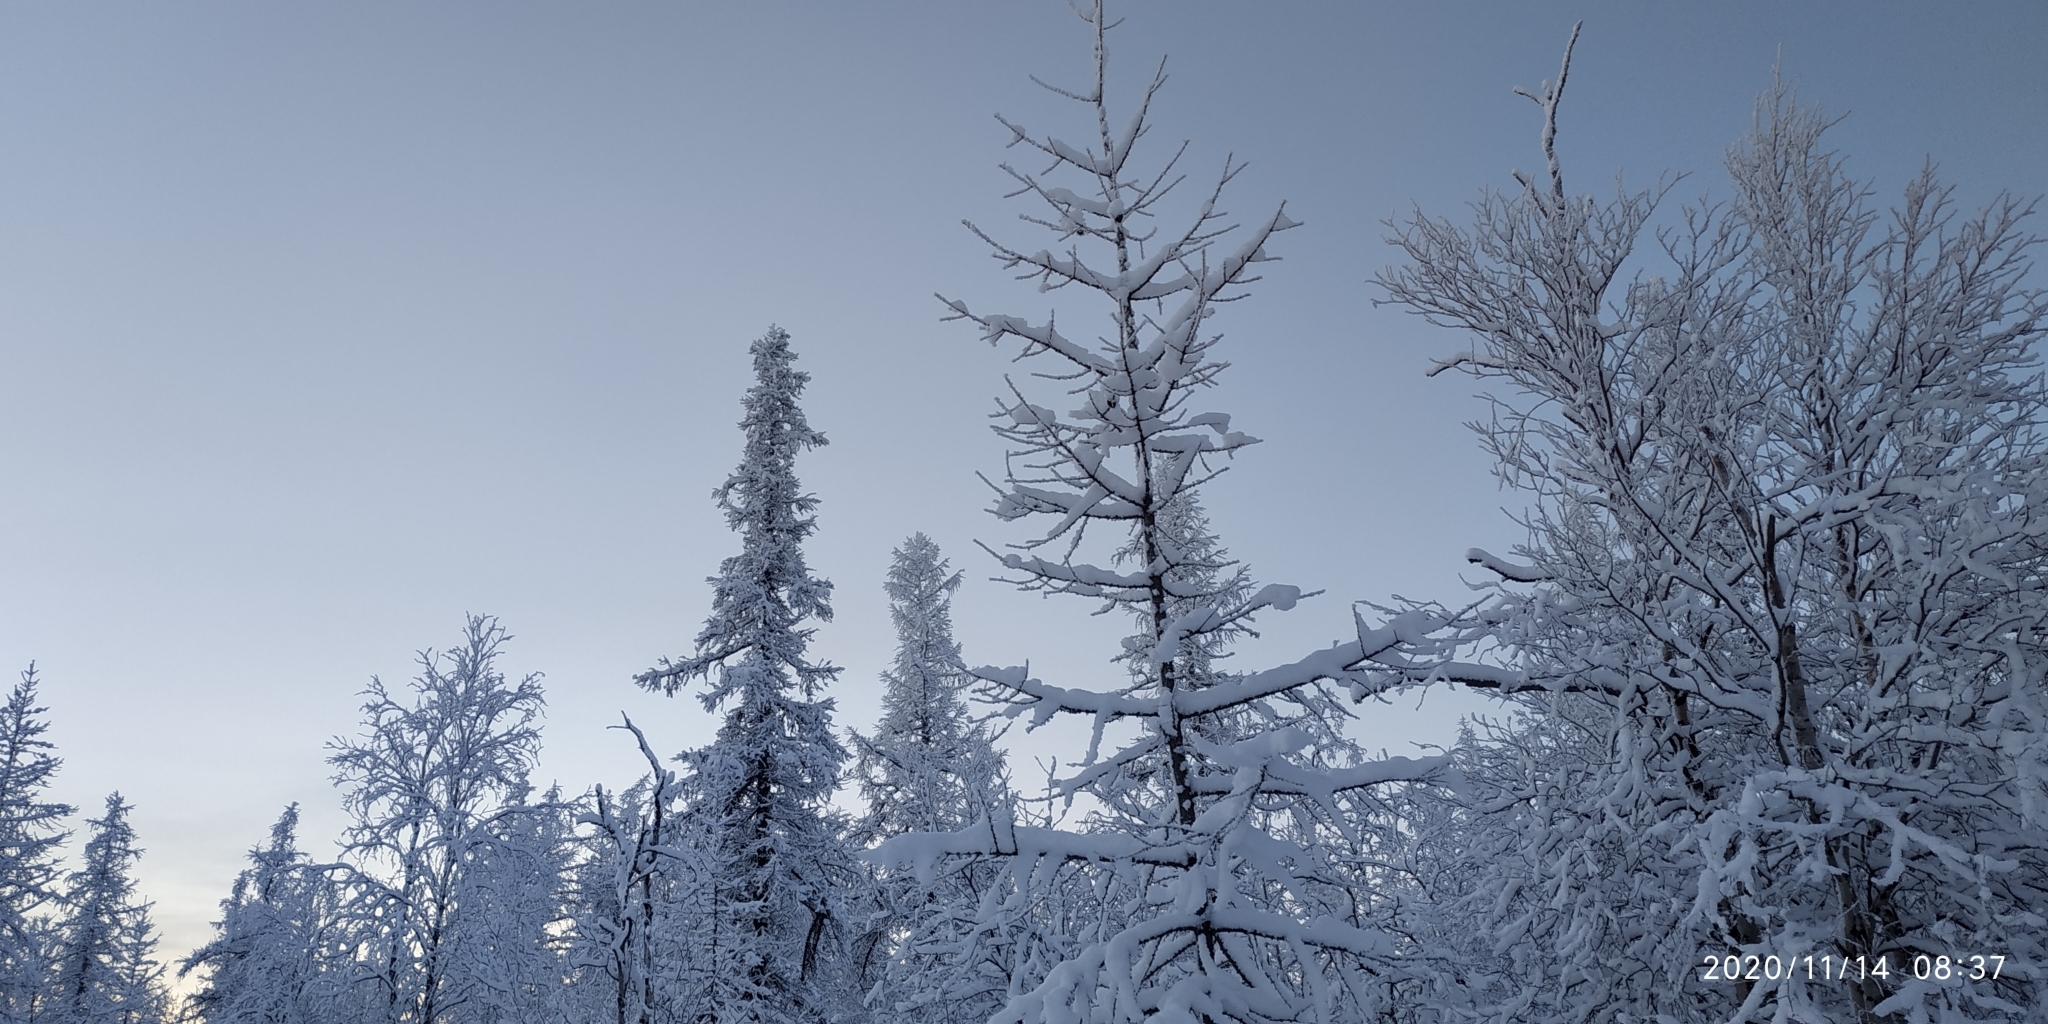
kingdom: Plantae
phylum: Tracheophyta
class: Pinopsida
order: Pinales
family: Pinaceae
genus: Larix
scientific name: Larix sibirica
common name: Siberian larch
